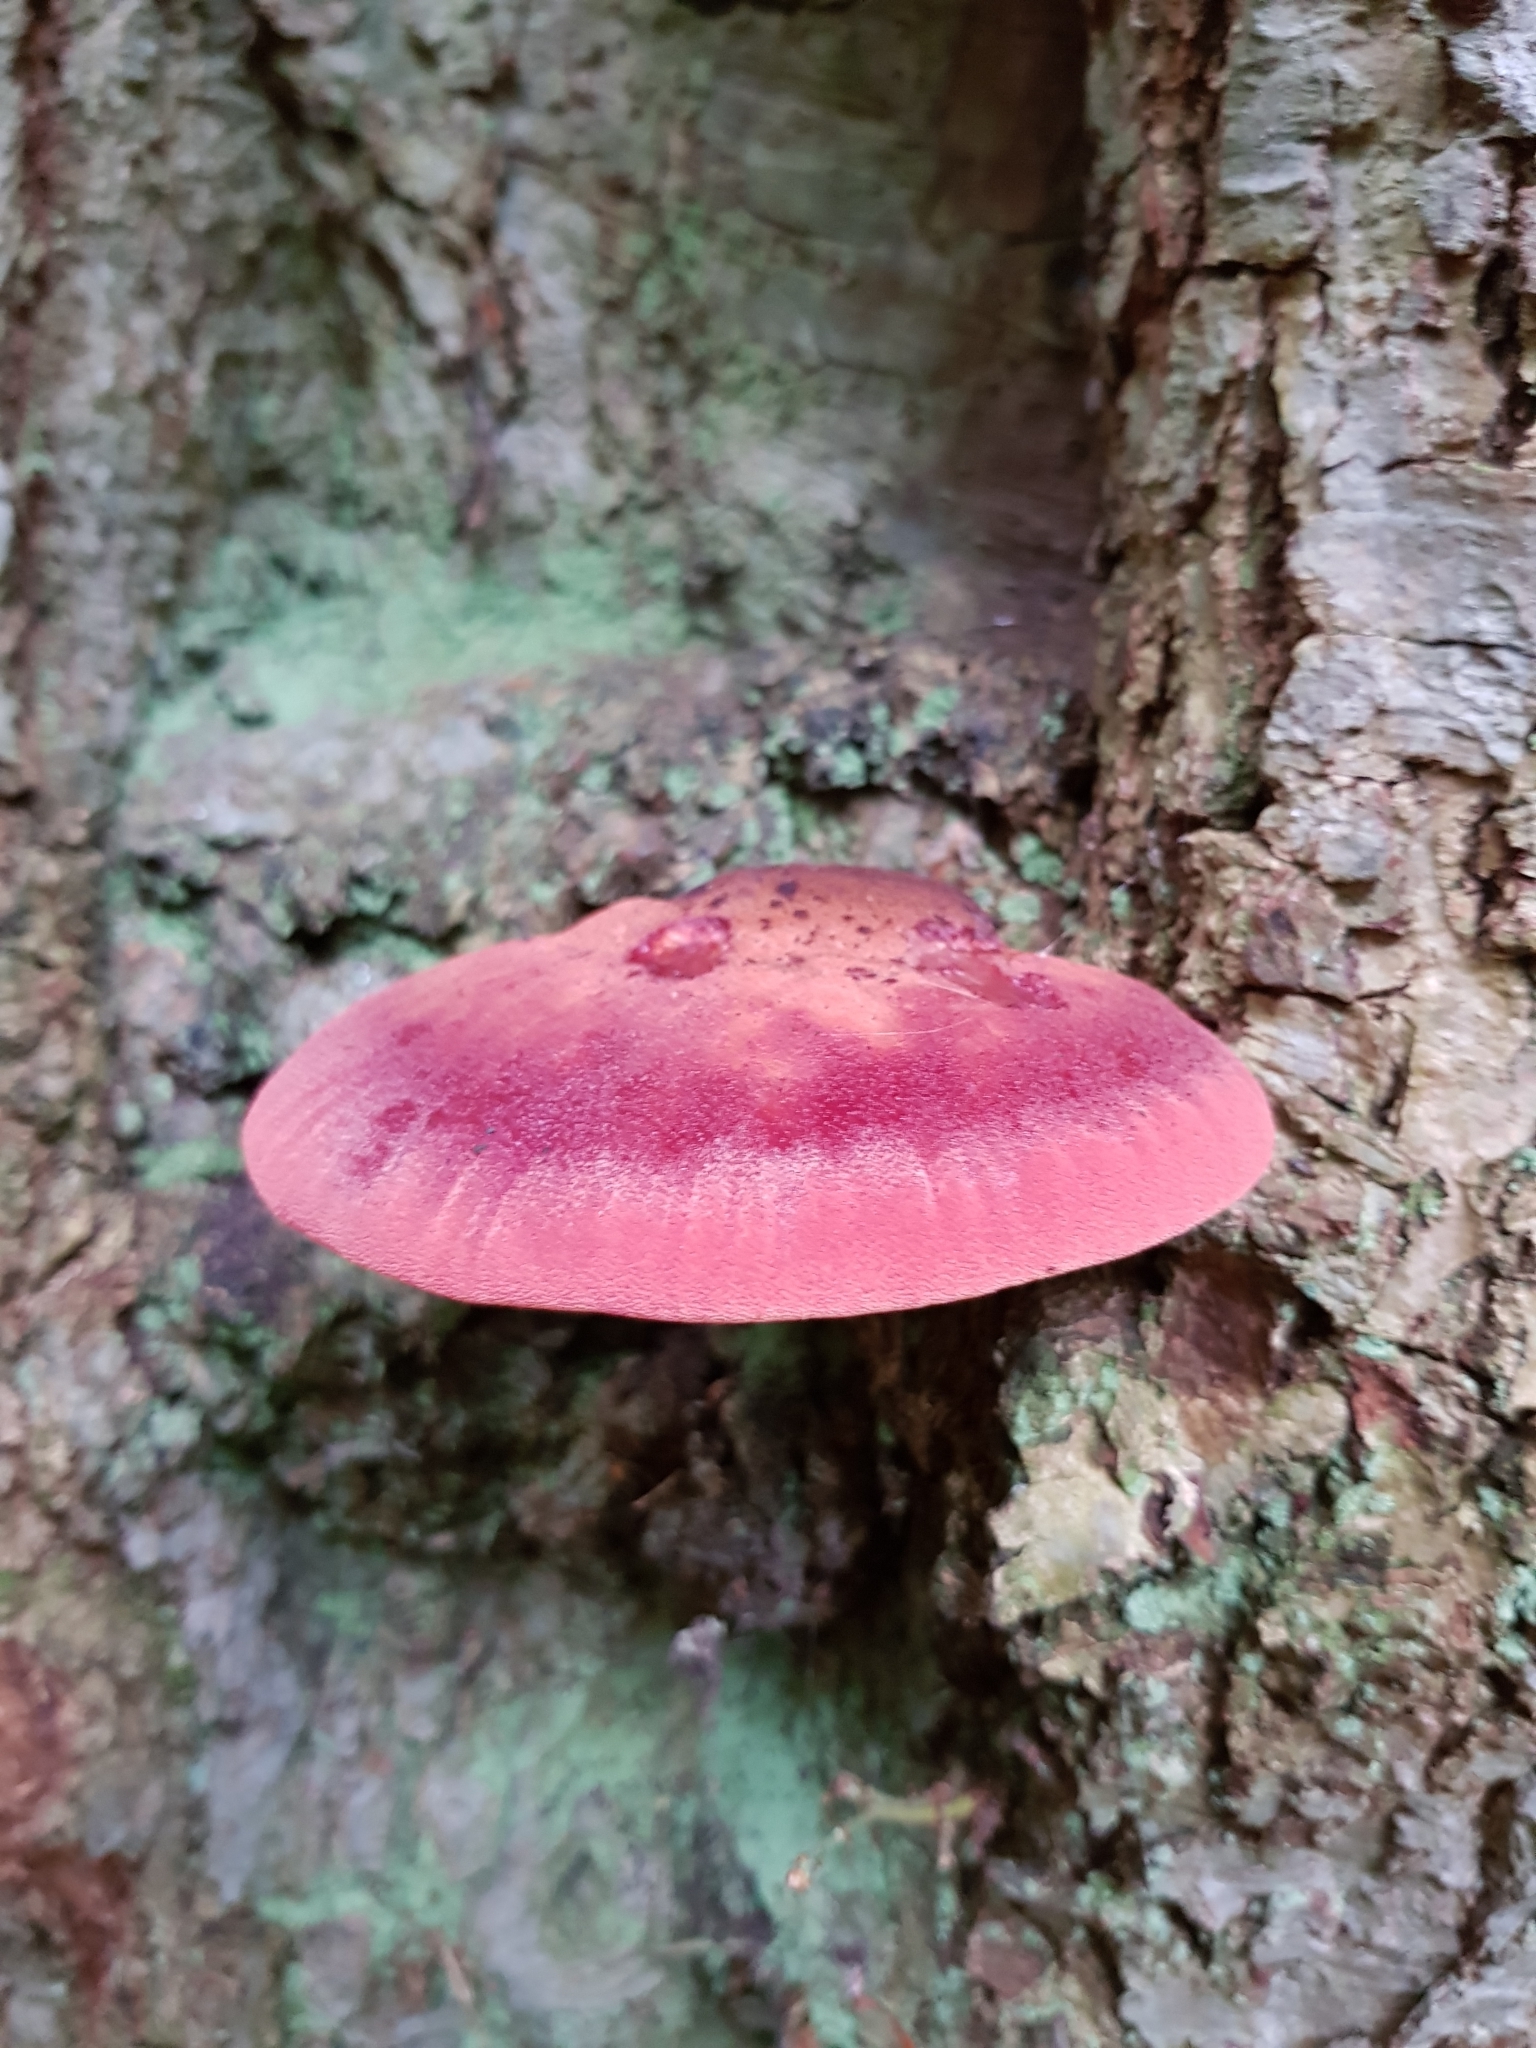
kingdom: Fungi
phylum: Basidiomycota
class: Agaricomycetes
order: Agaricales
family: Fistulinaceae
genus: Fistulina
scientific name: Fistulina hepatica
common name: Beef-steak fungus
